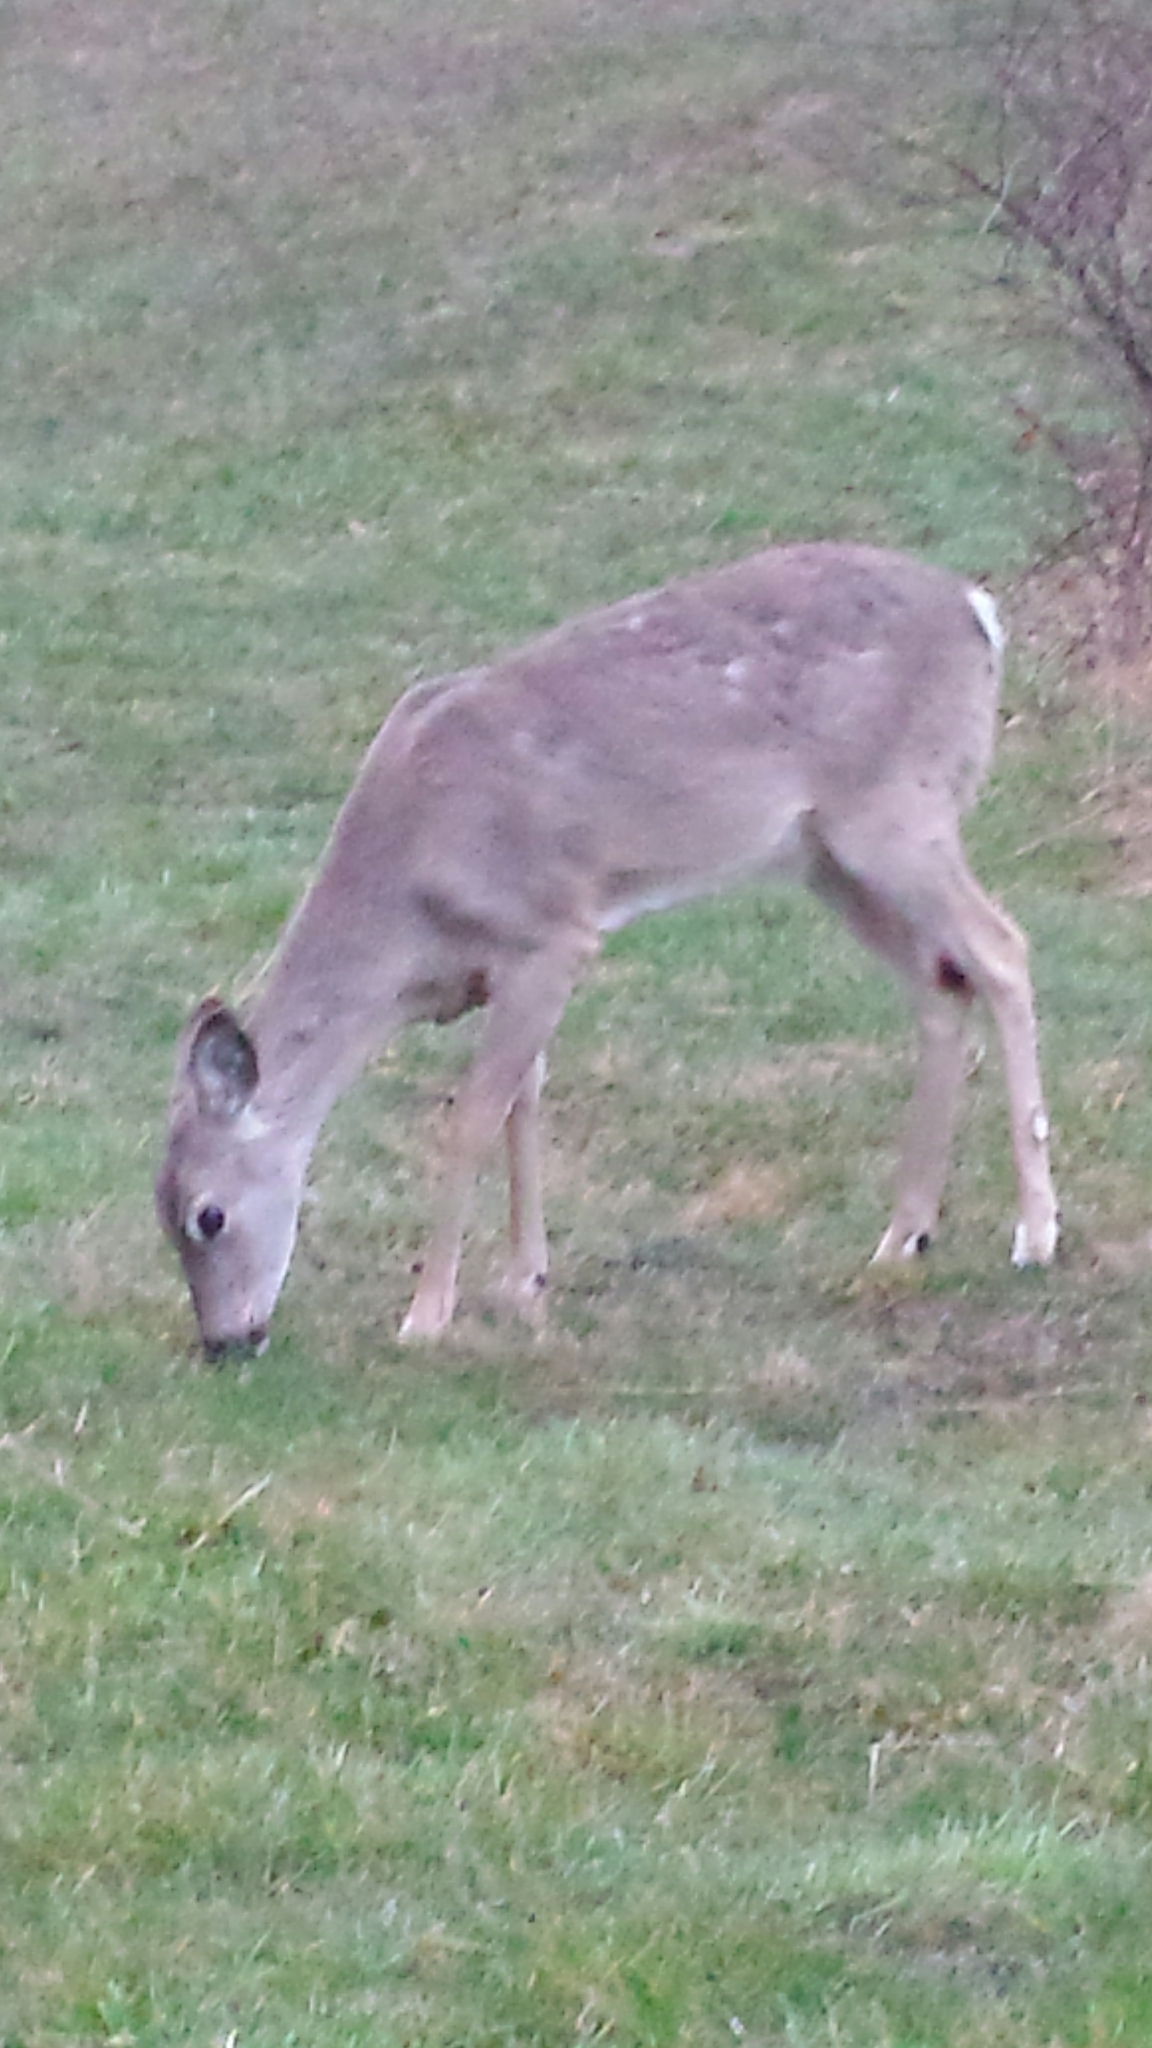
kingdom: Animalia
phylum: Chordata
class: Mammalia
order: Artiodactyla
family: Cervidae
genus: Odocoileus
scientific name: Odocoileus virginianus
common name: White-tailed deer
